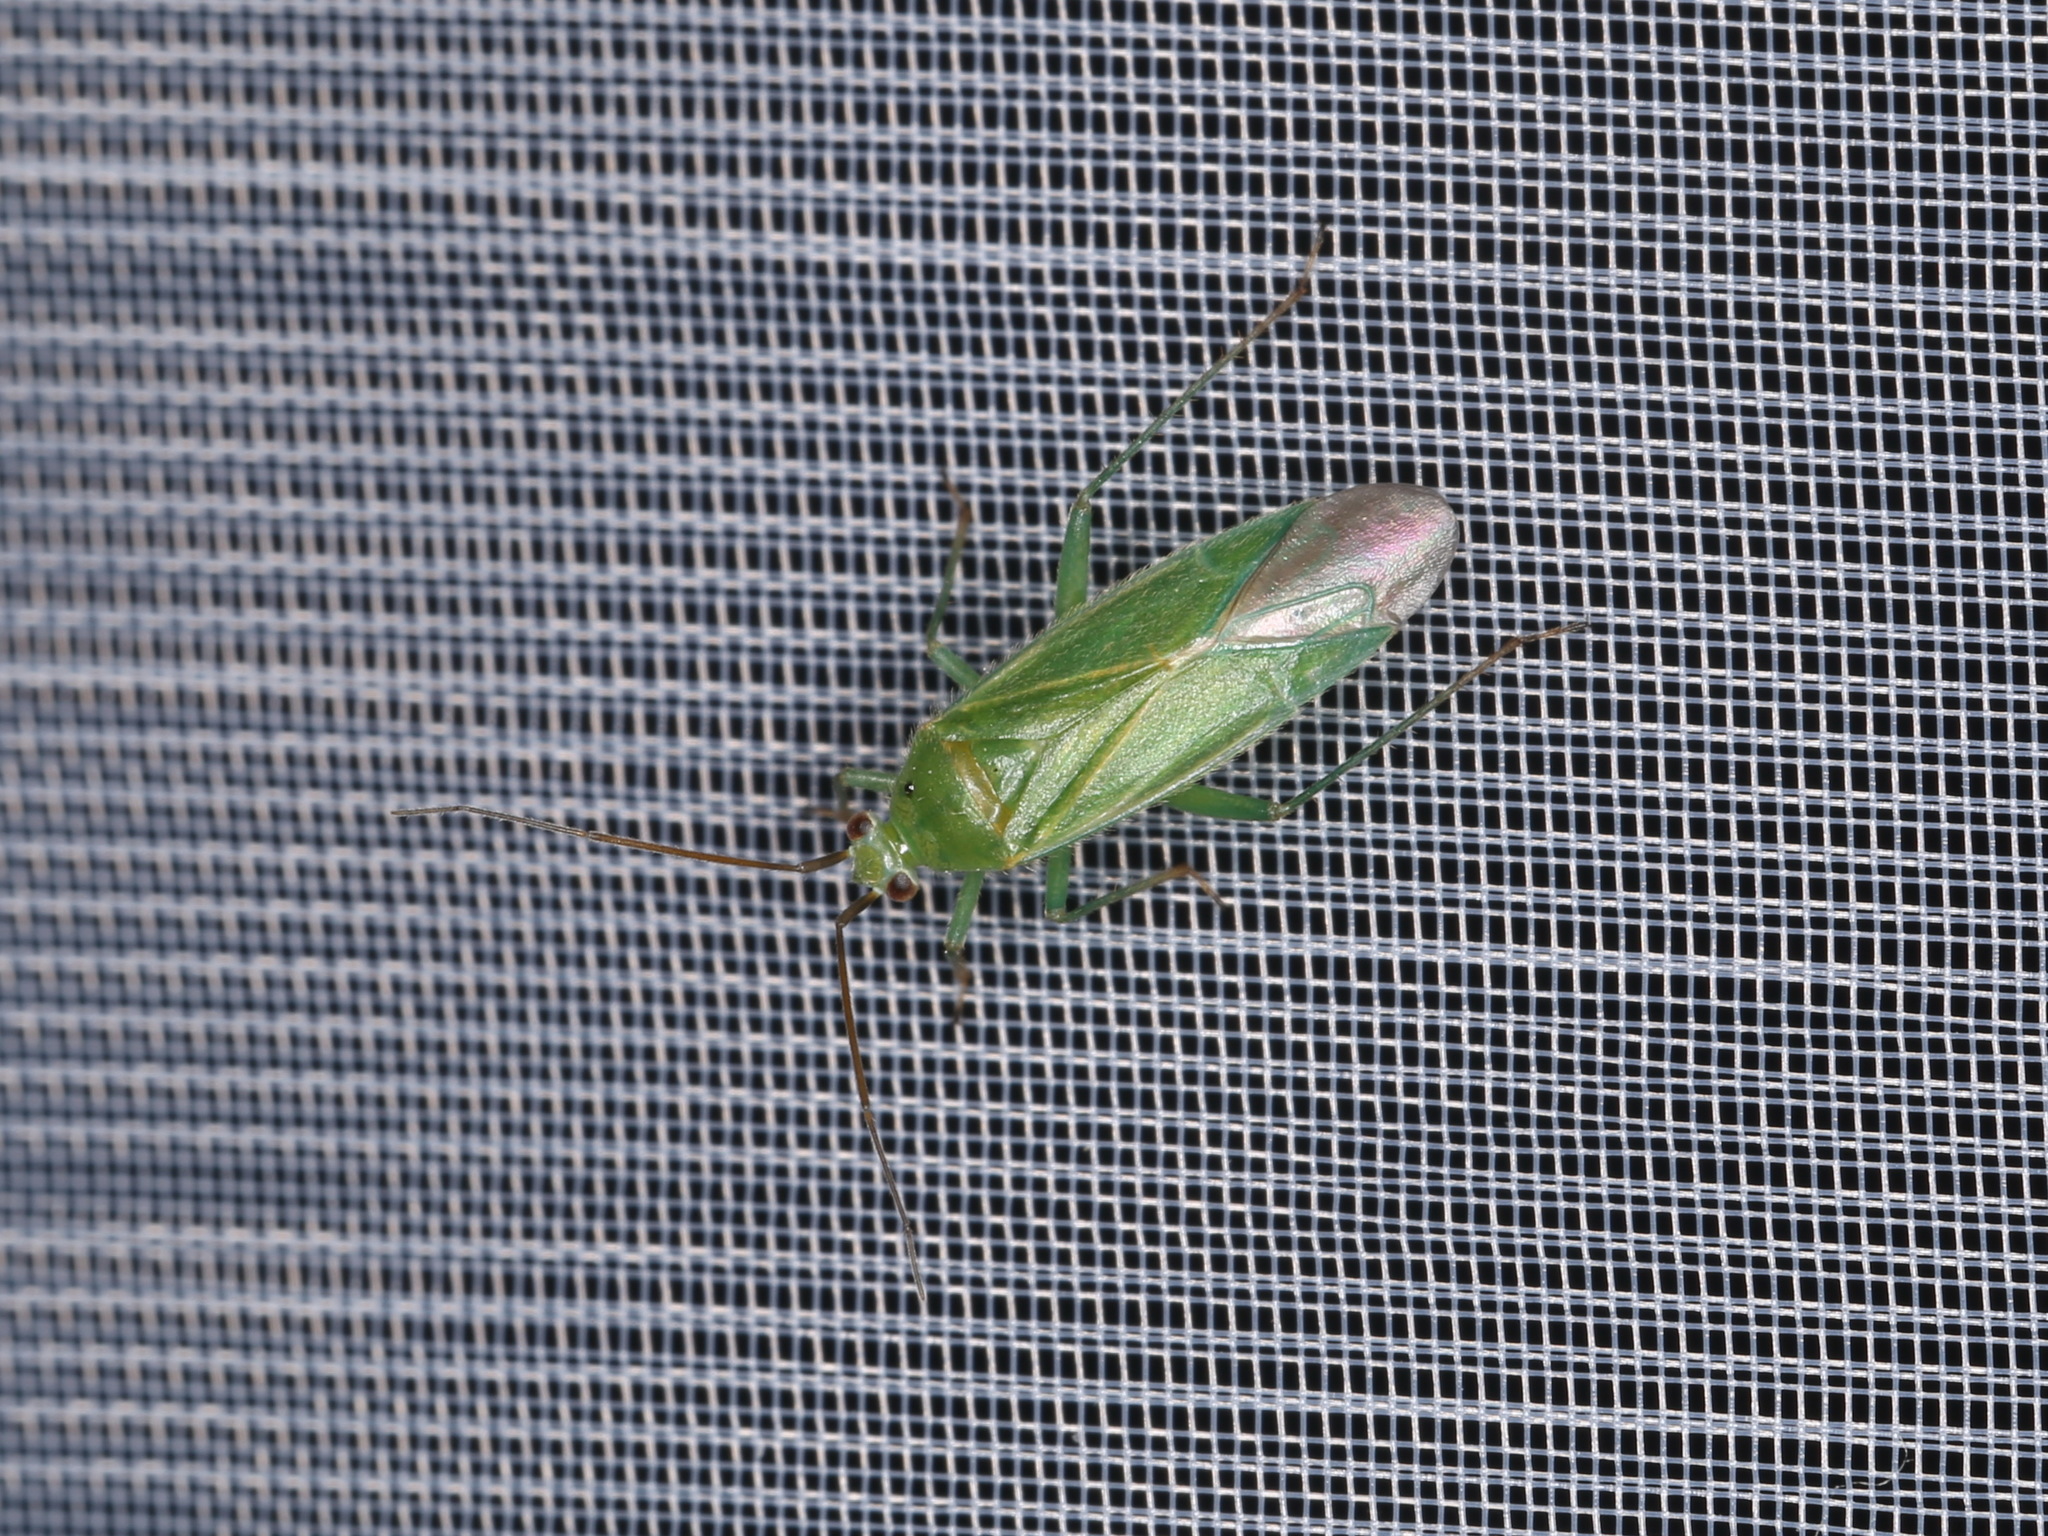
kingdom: Animalia
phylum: Arthropoda
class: Insecta
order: Hemiptera
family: Miridae
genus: Orthotylus
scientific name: Orthotylus marginalis
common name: Dark green apple capsid
